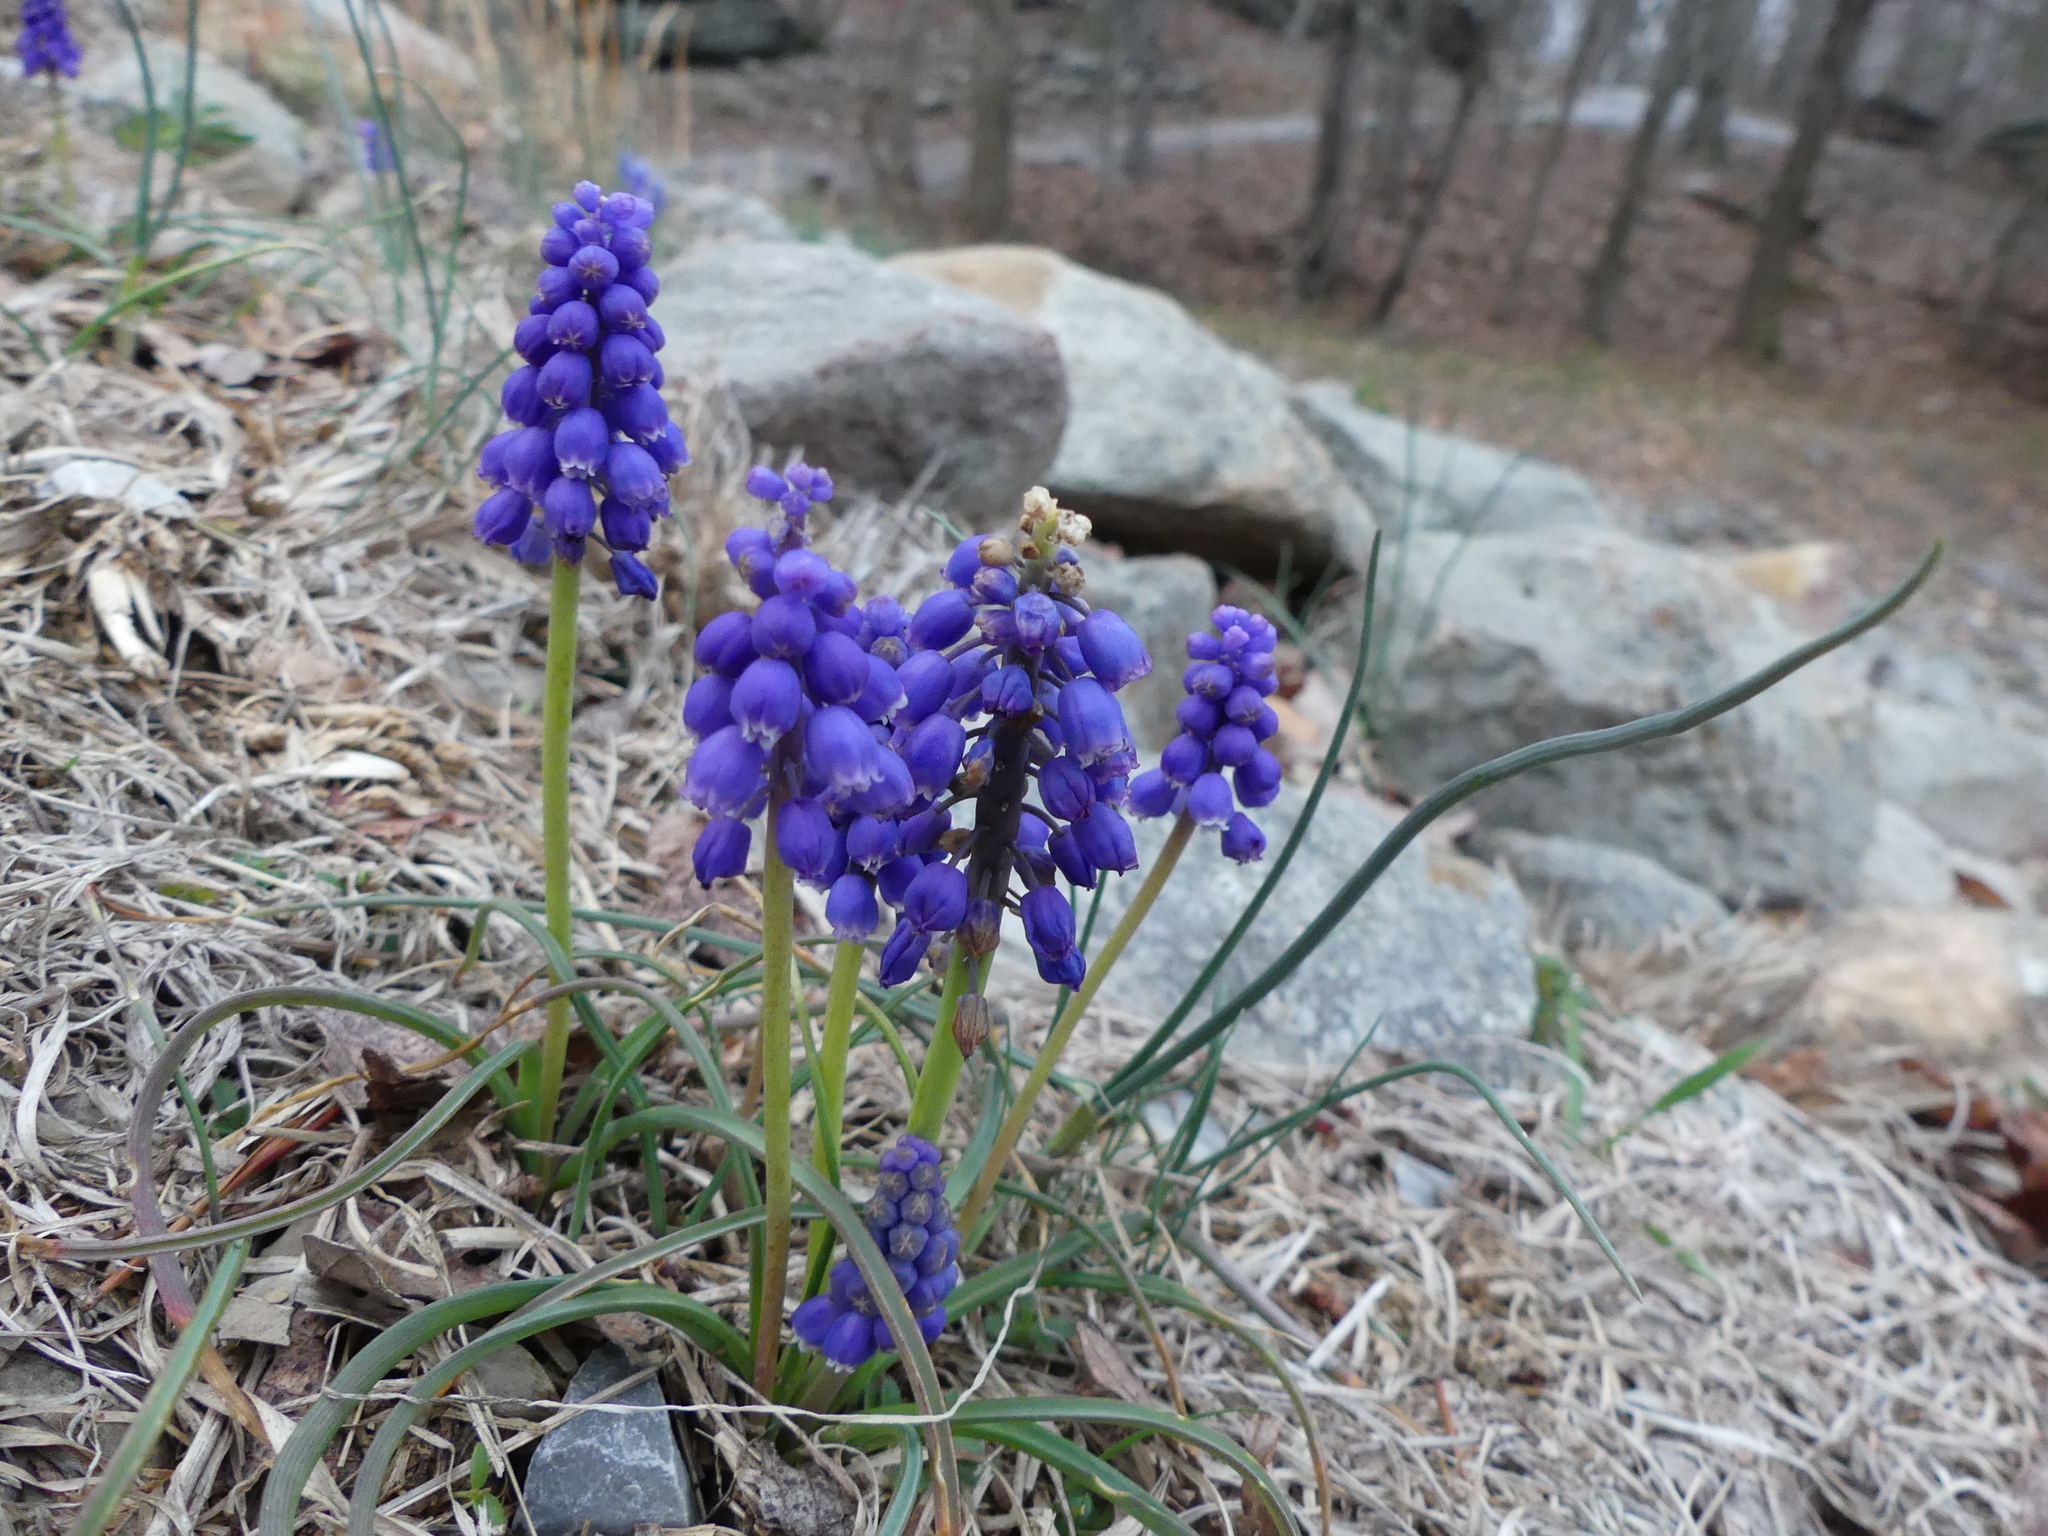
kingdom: Plantae
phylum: Tracheophyta
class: Liliopsida
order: Asparagales
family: Asparagaceae
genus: Muscari
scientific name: Muscari botryoides
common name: Compact grape-hyacinth
